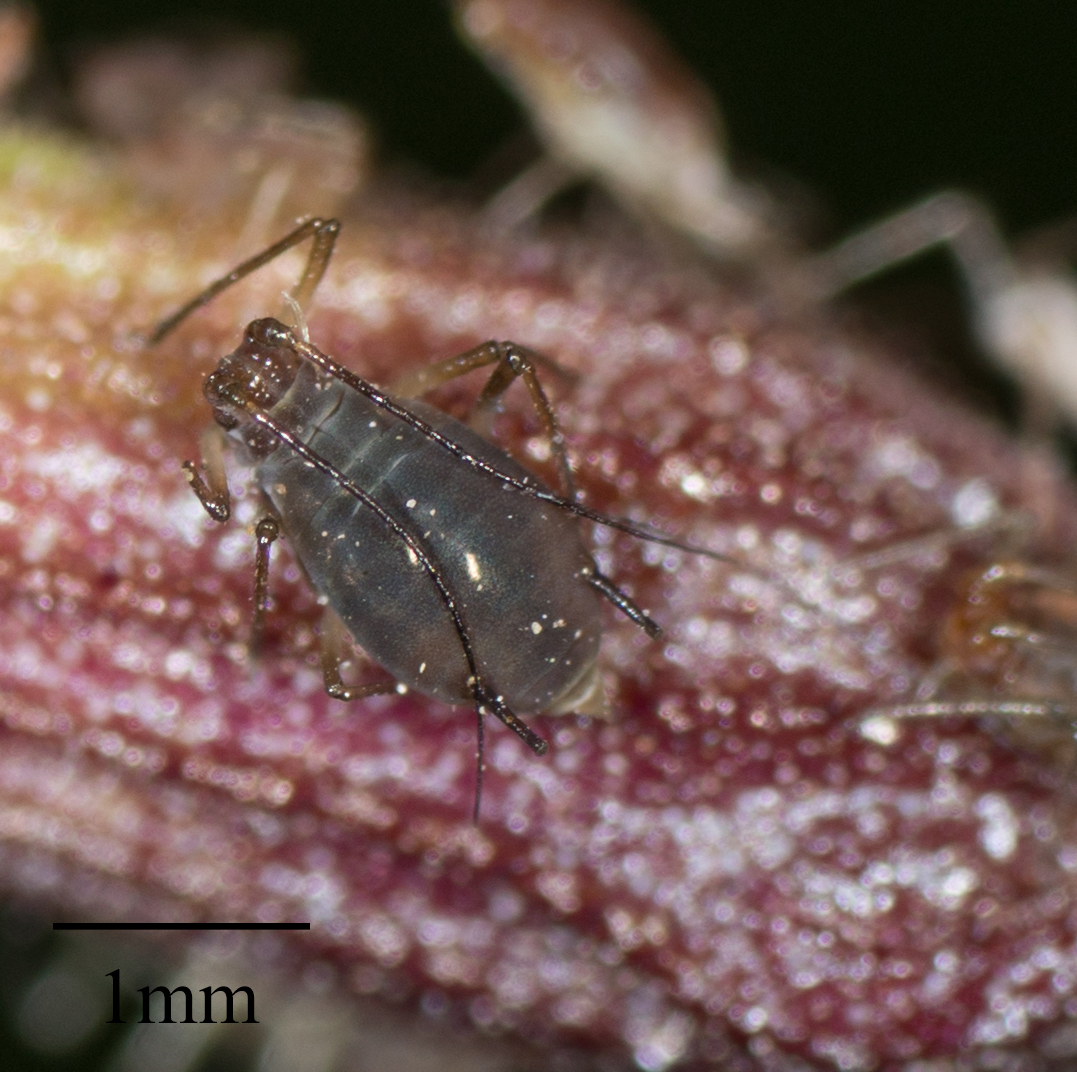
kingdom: Animalia
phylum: Arthropoda
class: Insecta
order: Hemiptera
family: Aphididae
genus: Macrosiphum
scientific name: Macrosiphum salviae
